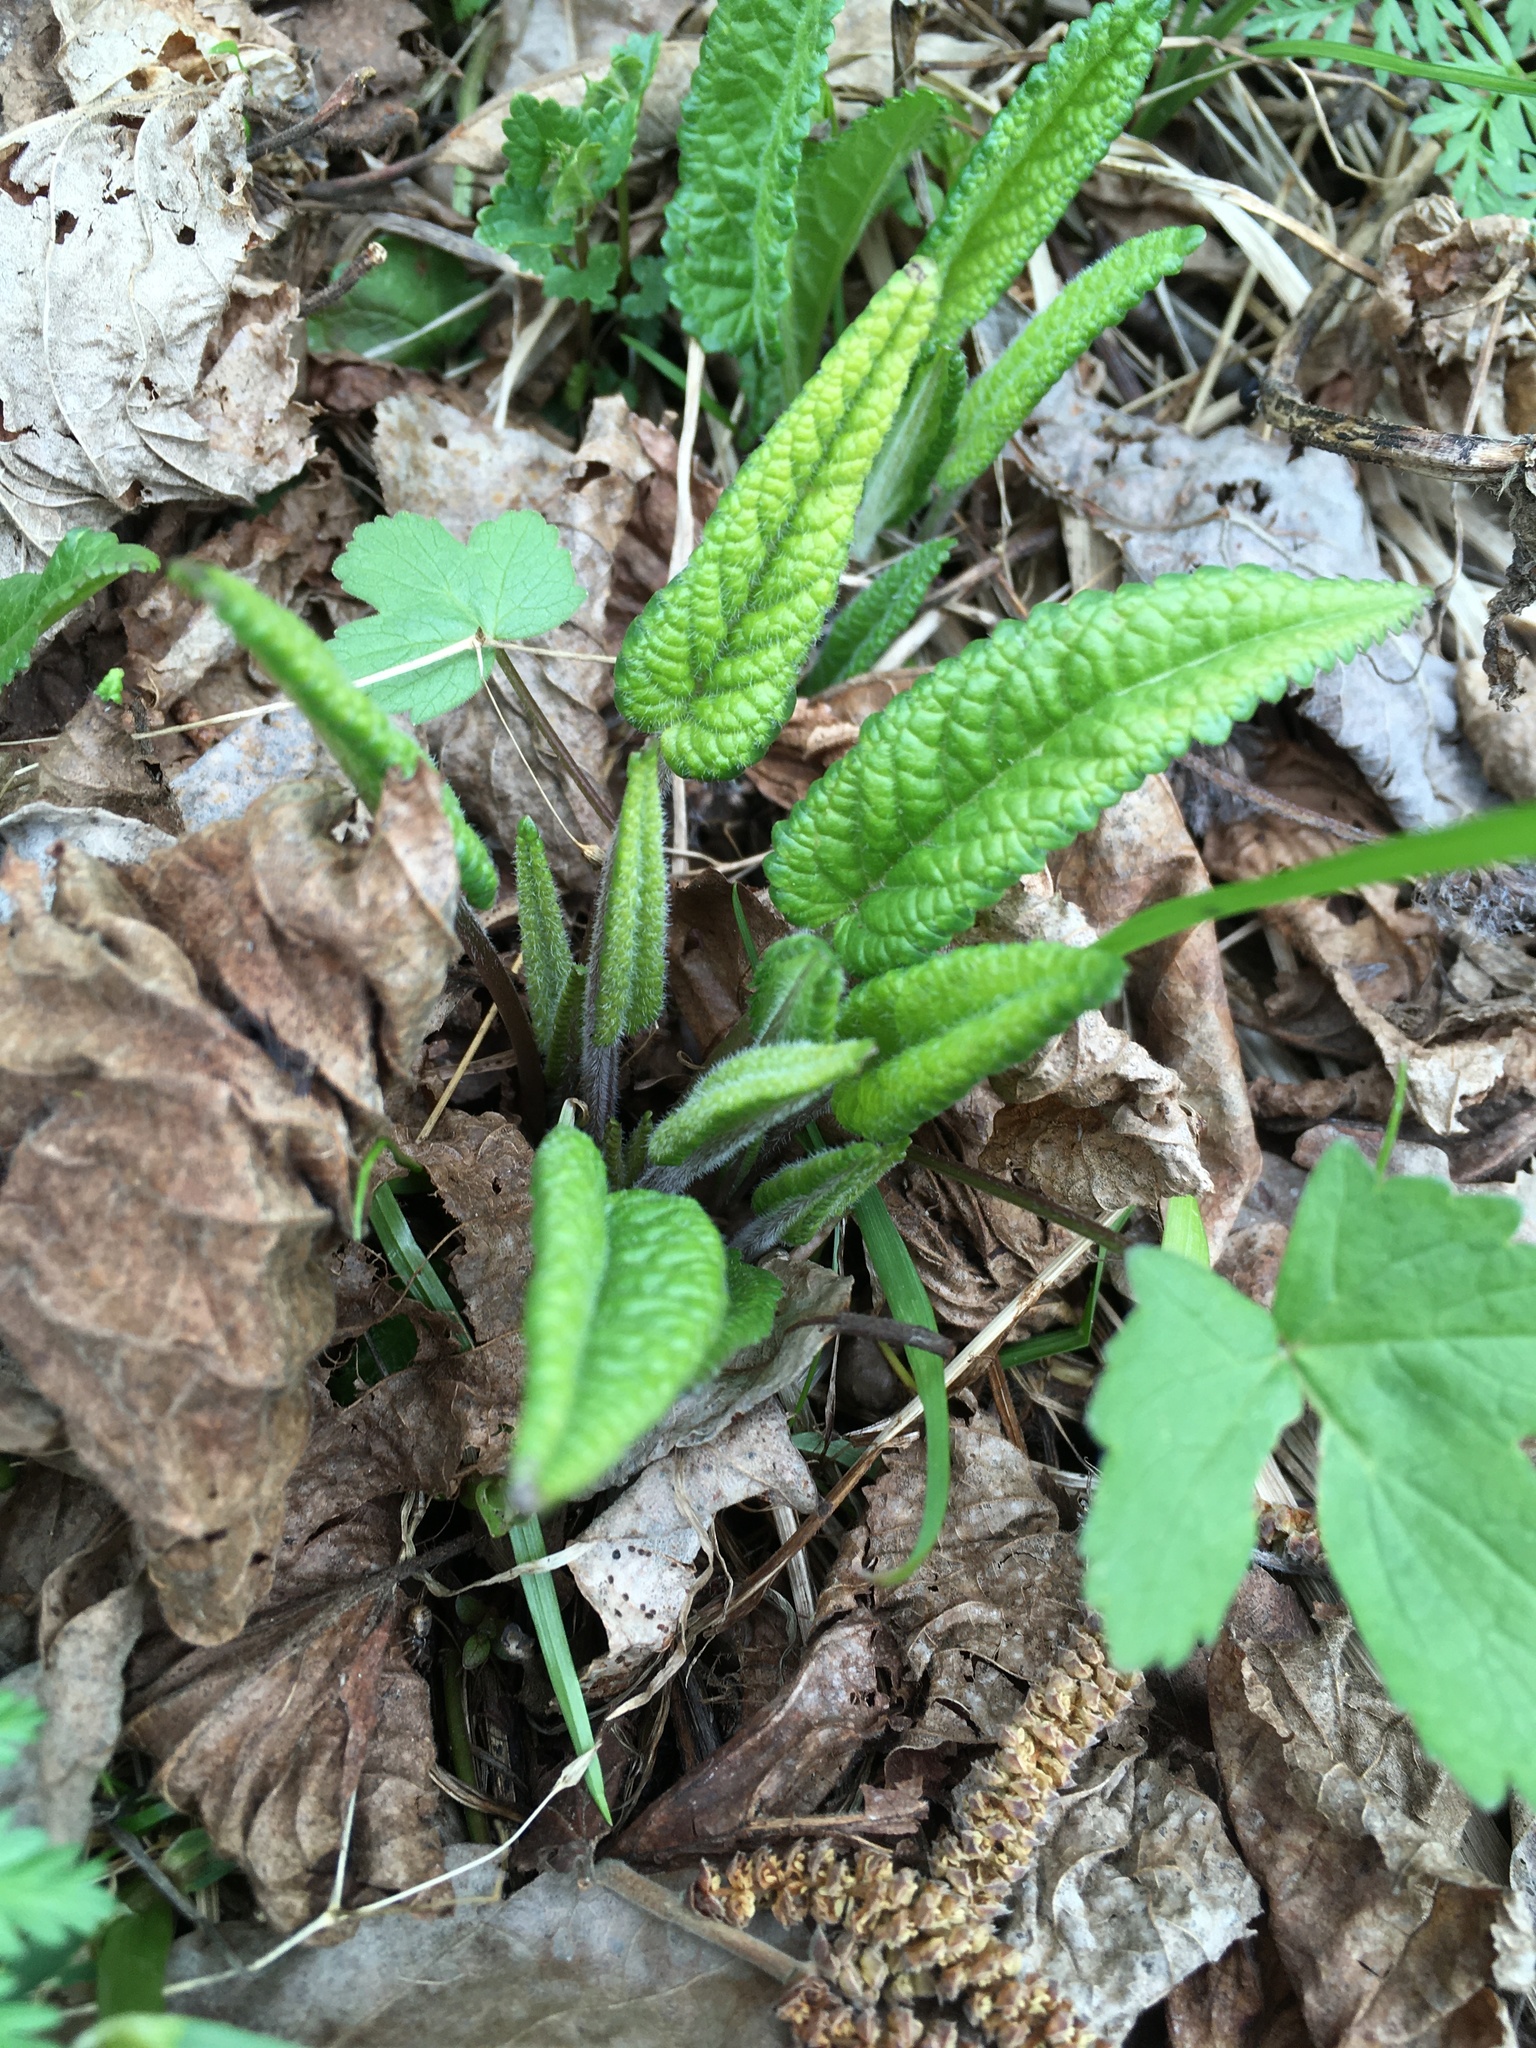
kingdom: Plantae
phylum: Tracheophyta
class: Magnoliopsida
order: Lamiales
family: Lamiaceae
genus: Betonica
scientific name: Betonica officinalis
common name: Bishop's-wort
